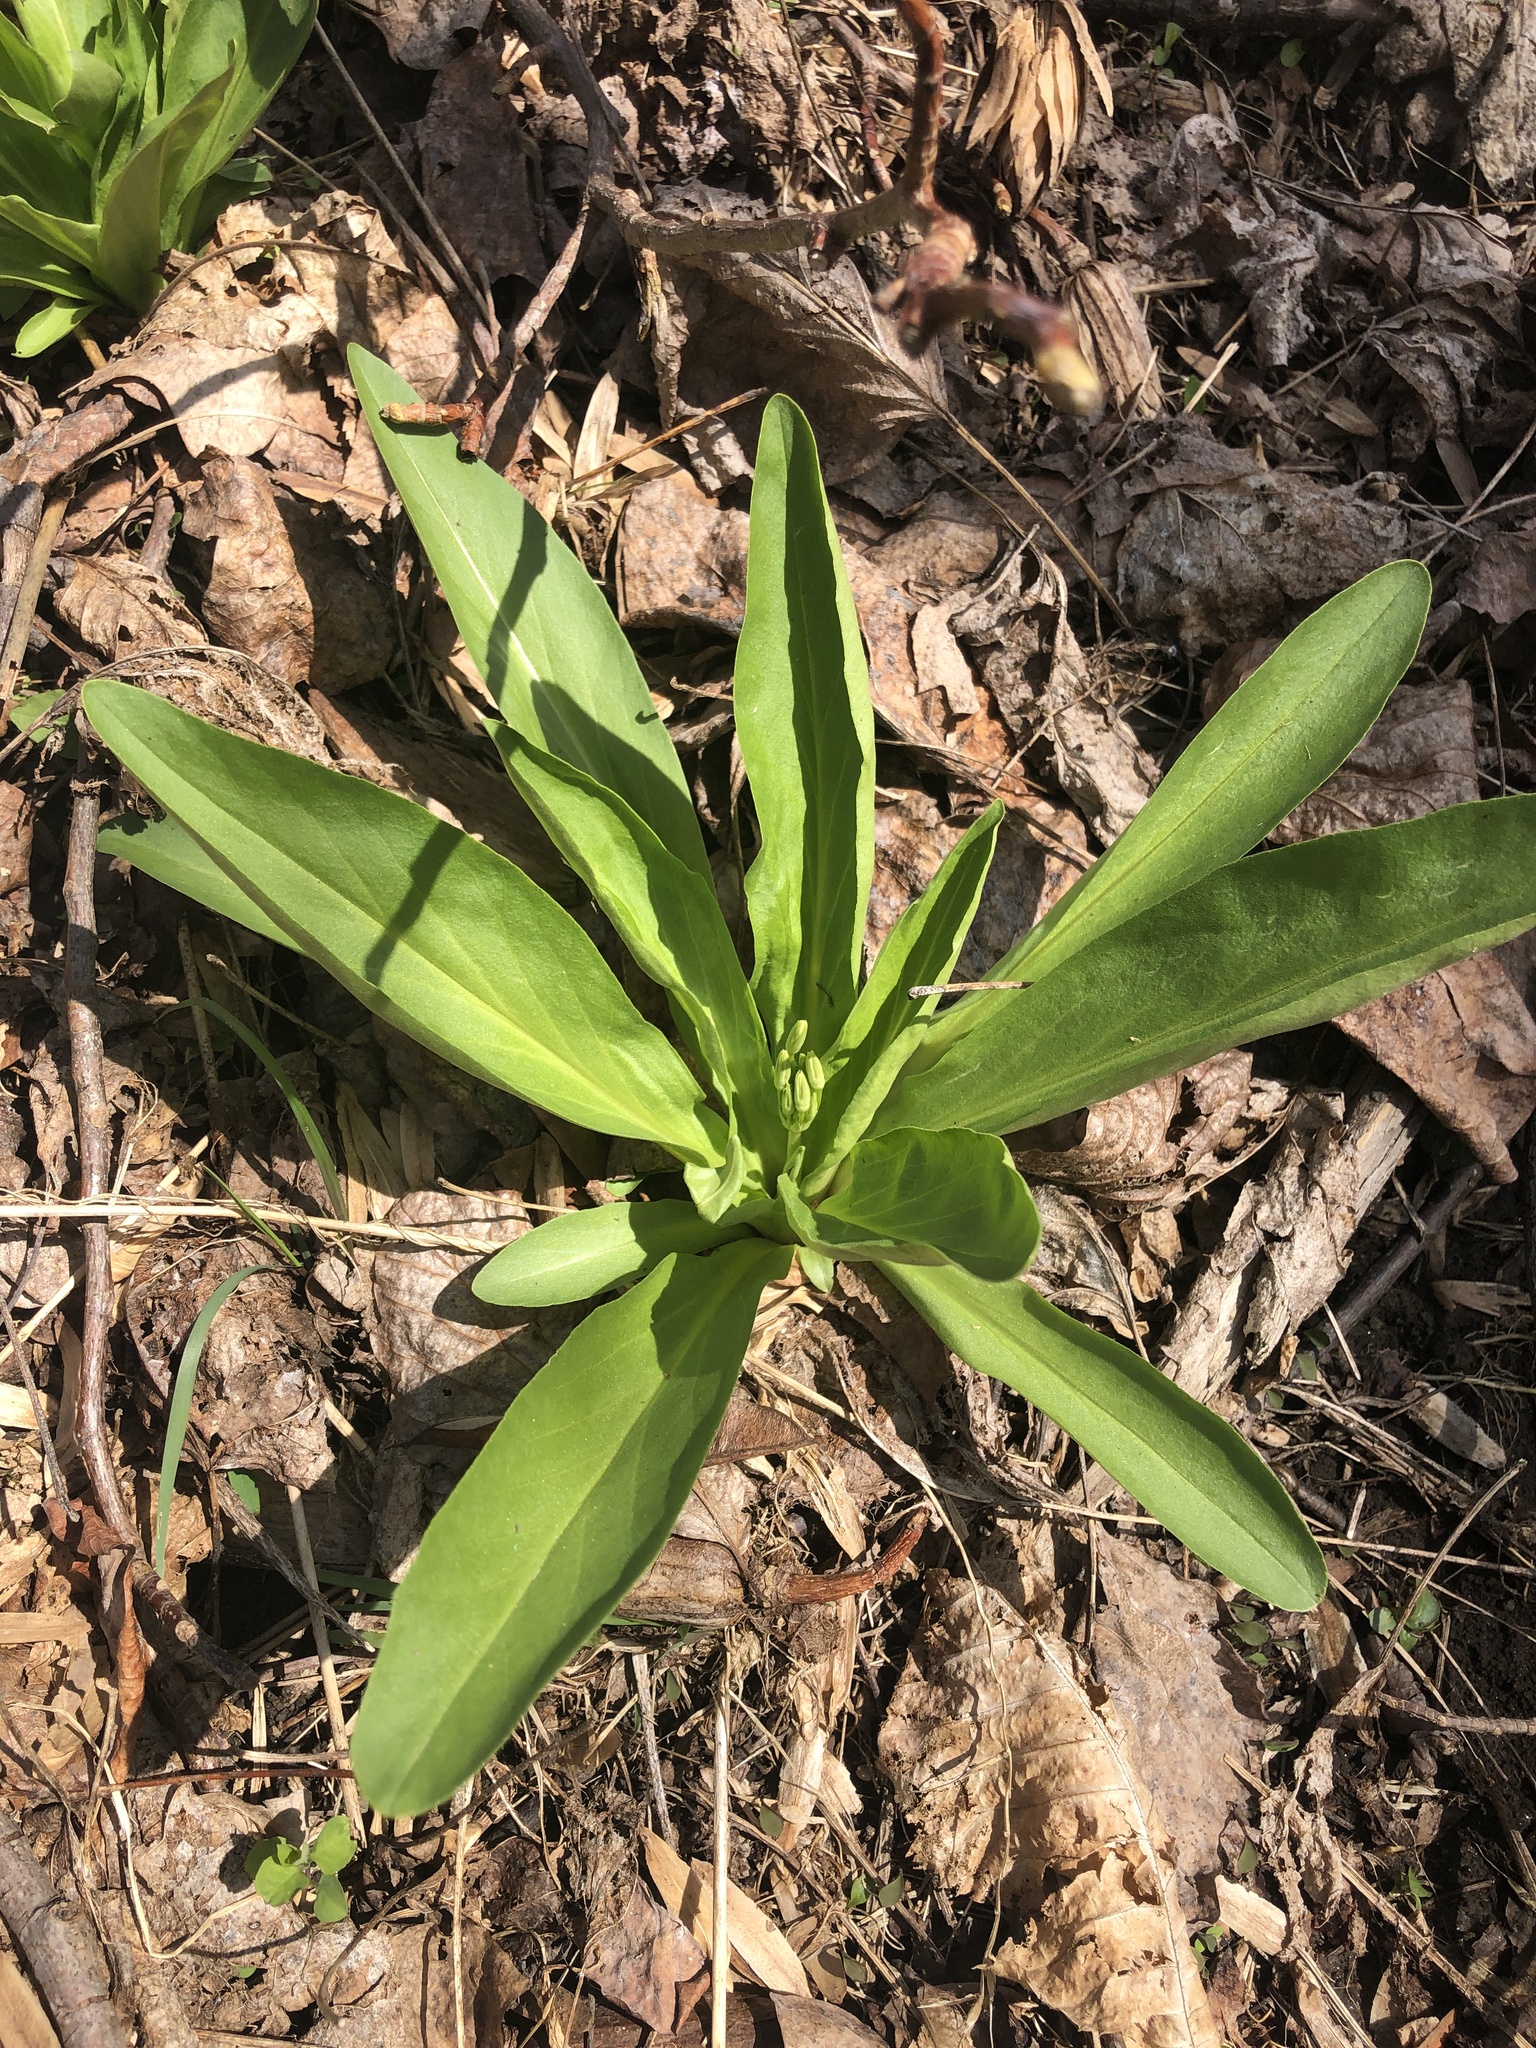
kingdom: Plantae
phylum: Tracheophyta
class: Magnoliopsida
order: Ericales
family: Primulaceae
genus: Dodecatheon
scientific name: Dodecatheon meadia
